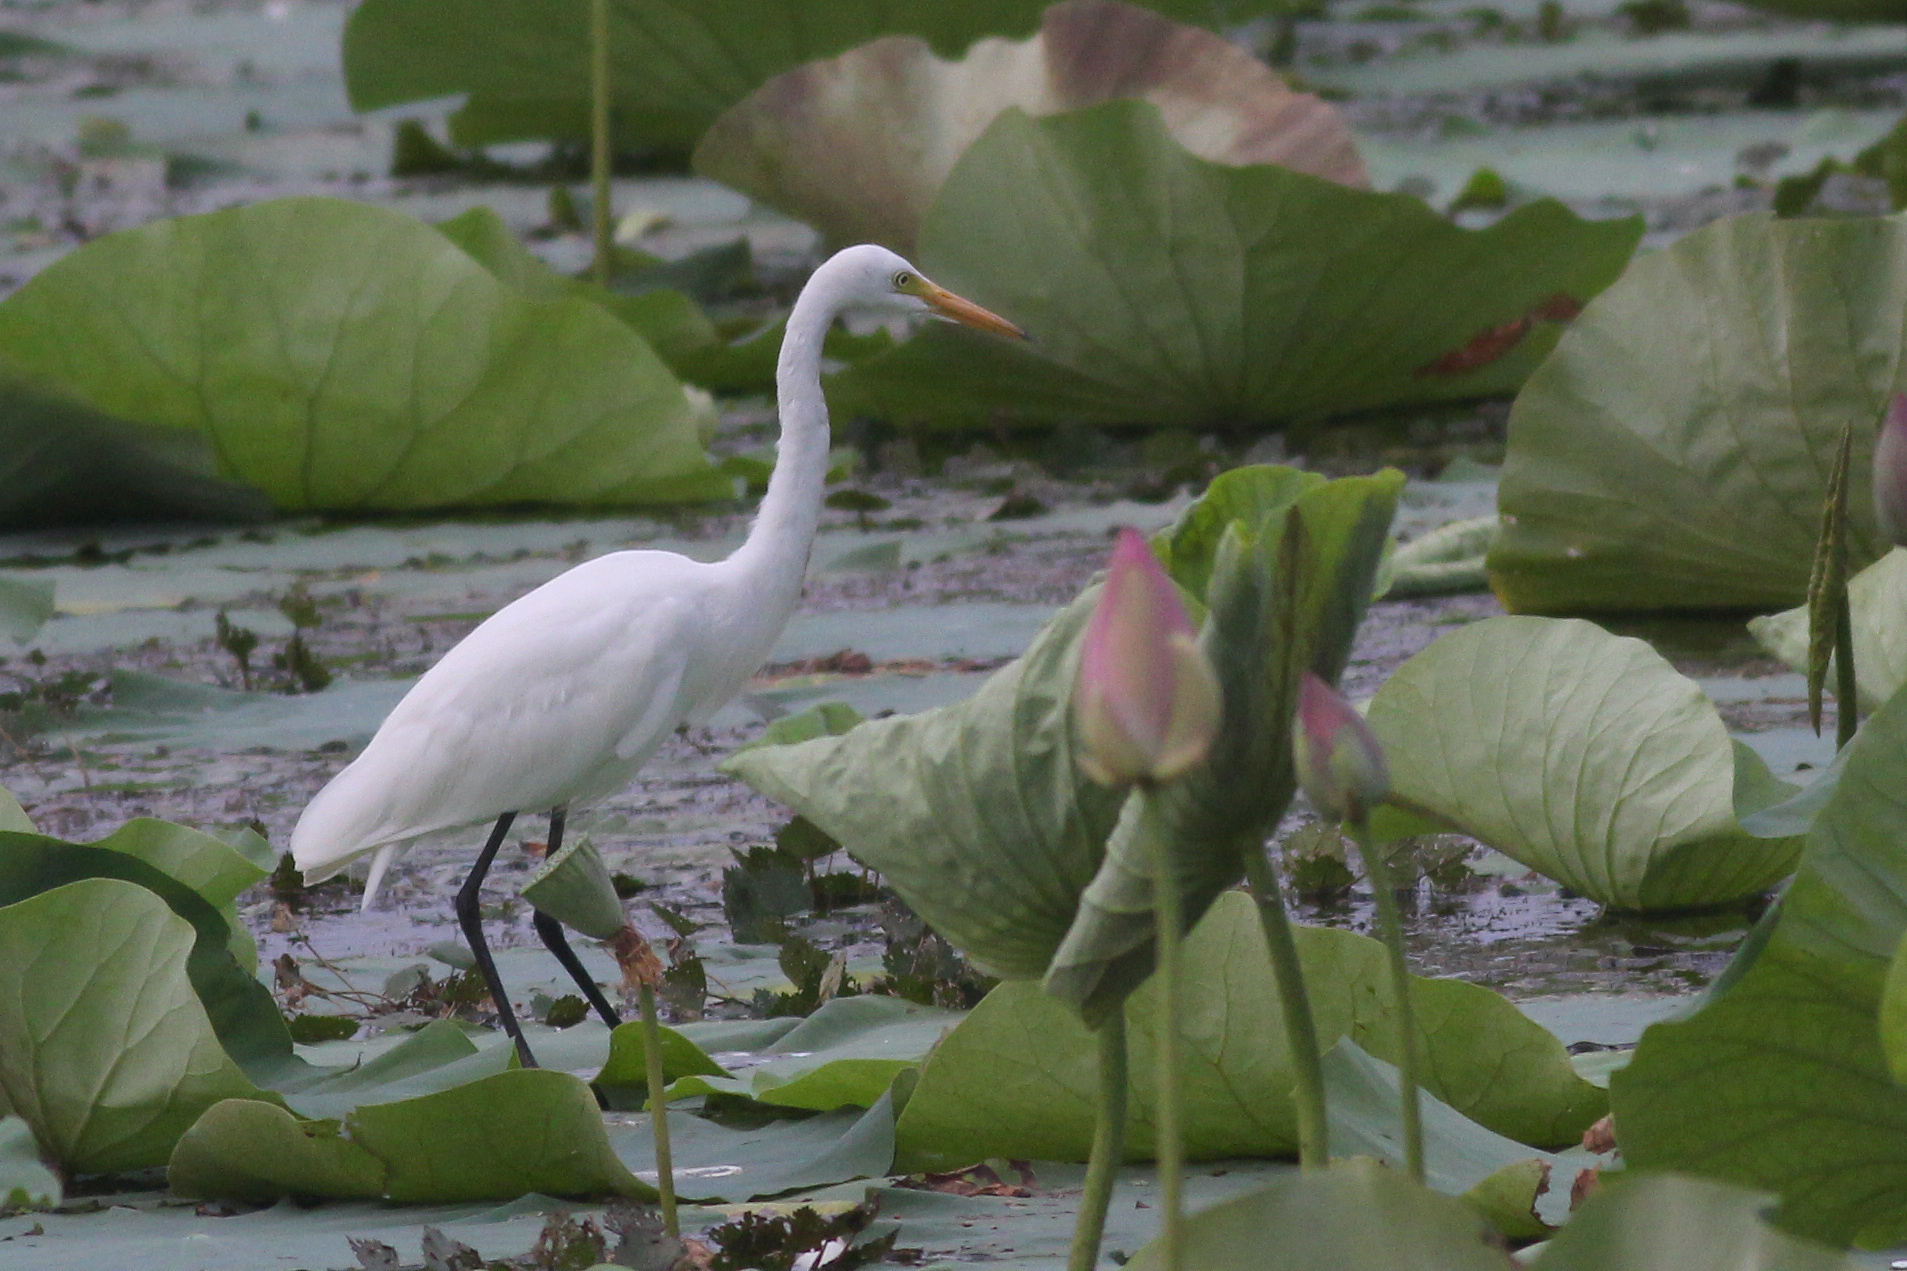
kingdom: Animalia
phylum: Chordata
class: Aves
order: Pelecaniformes
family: Ardeidae
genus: Egretta
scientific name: Egretta intermedia
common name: Intermediate egret
